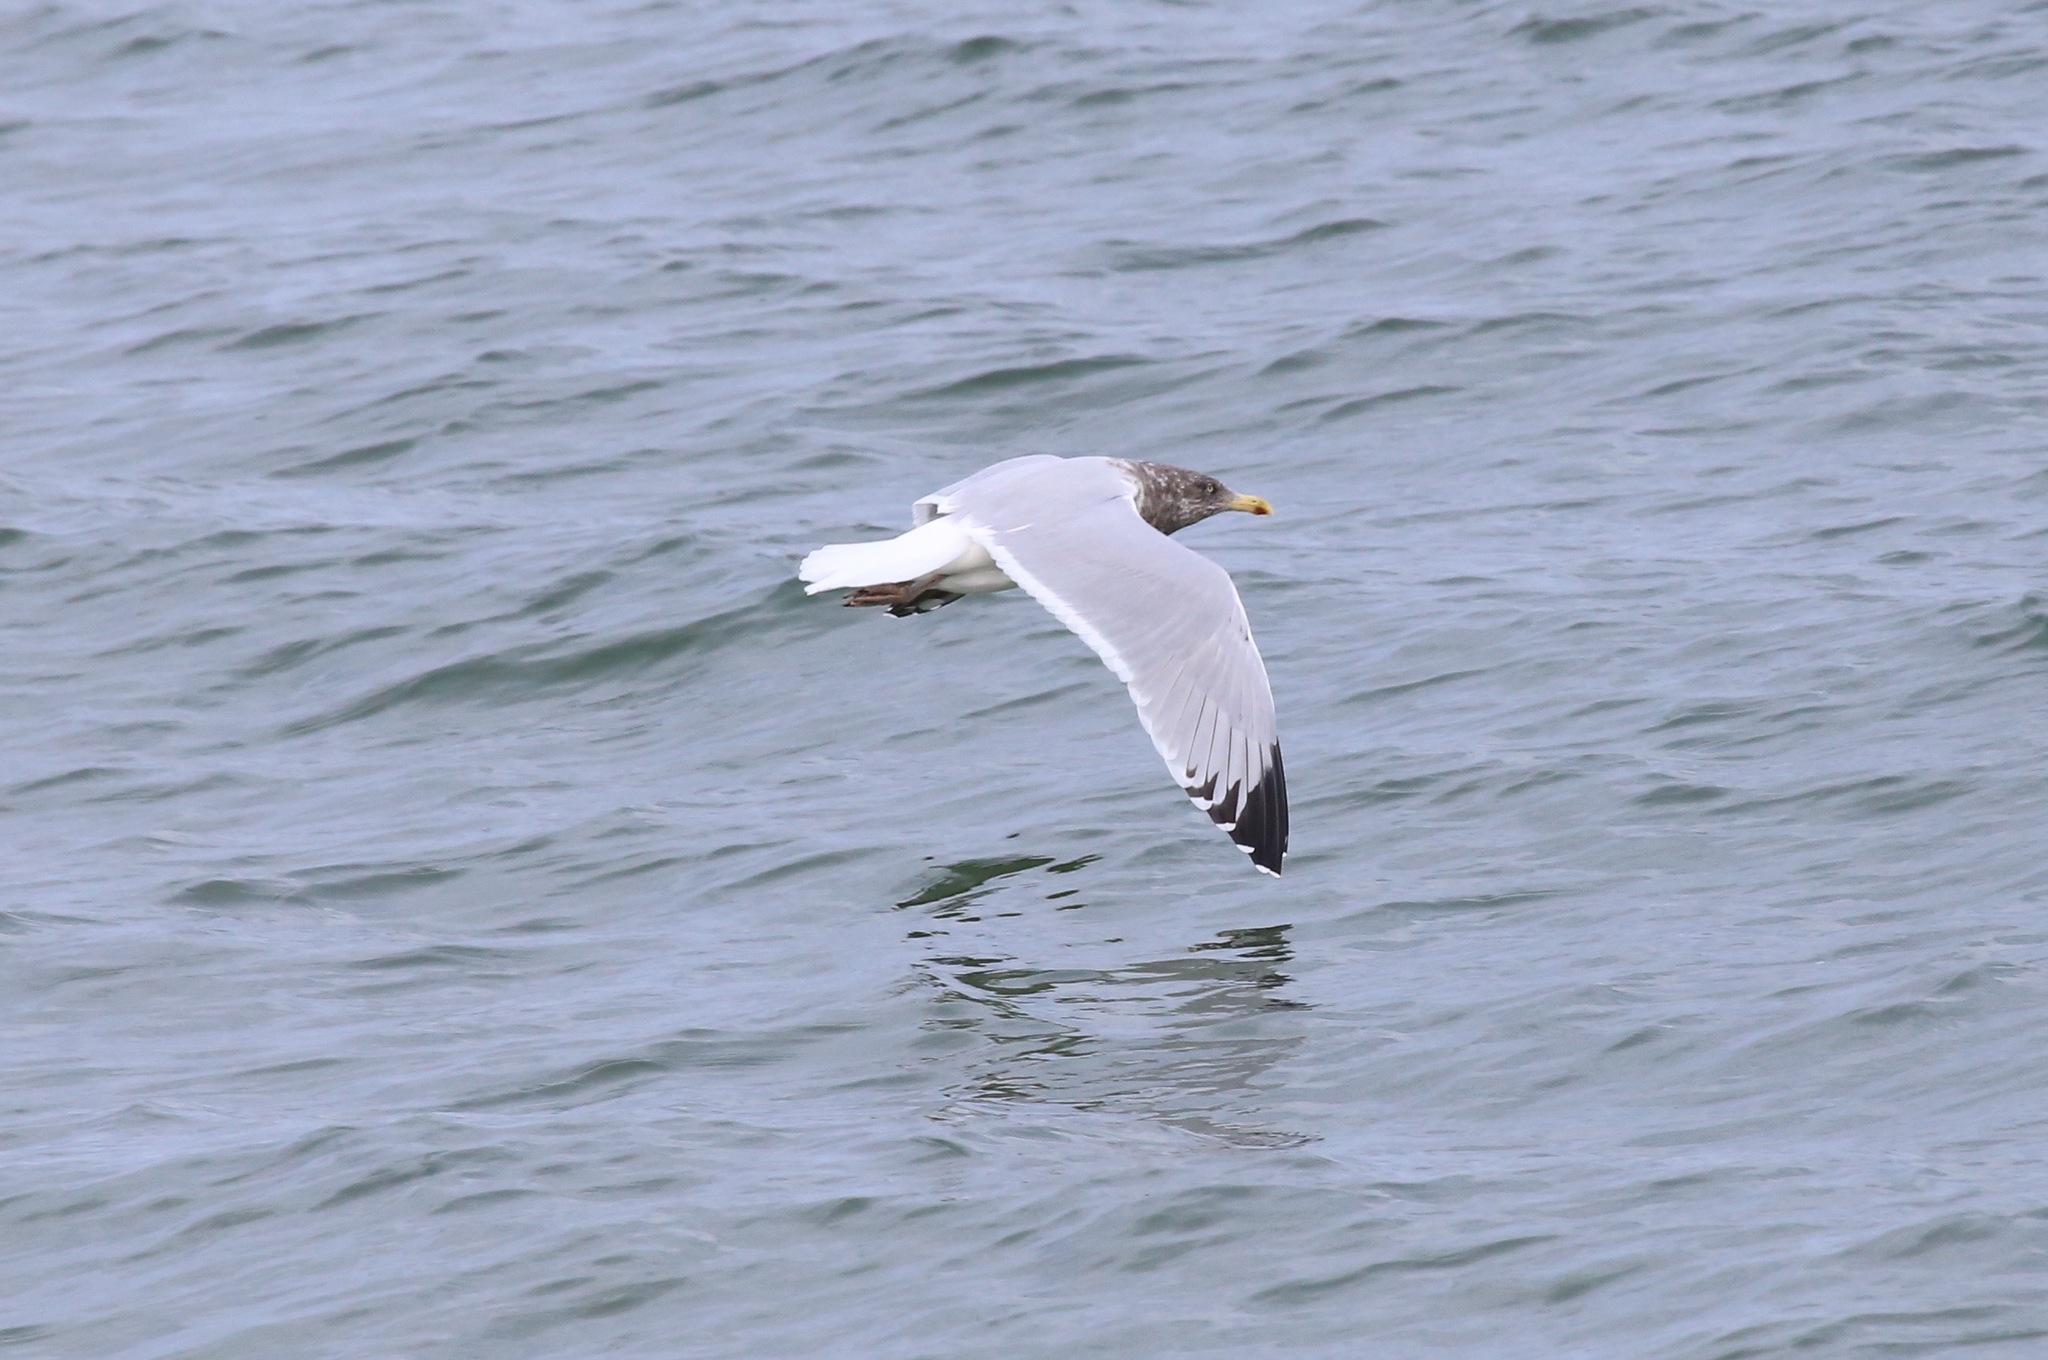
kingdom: Animalia
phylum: Chordata
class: Aves
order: Charadriiformes
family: Laridae
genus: Larus
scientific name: Larus argentatus
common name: Herring gull
